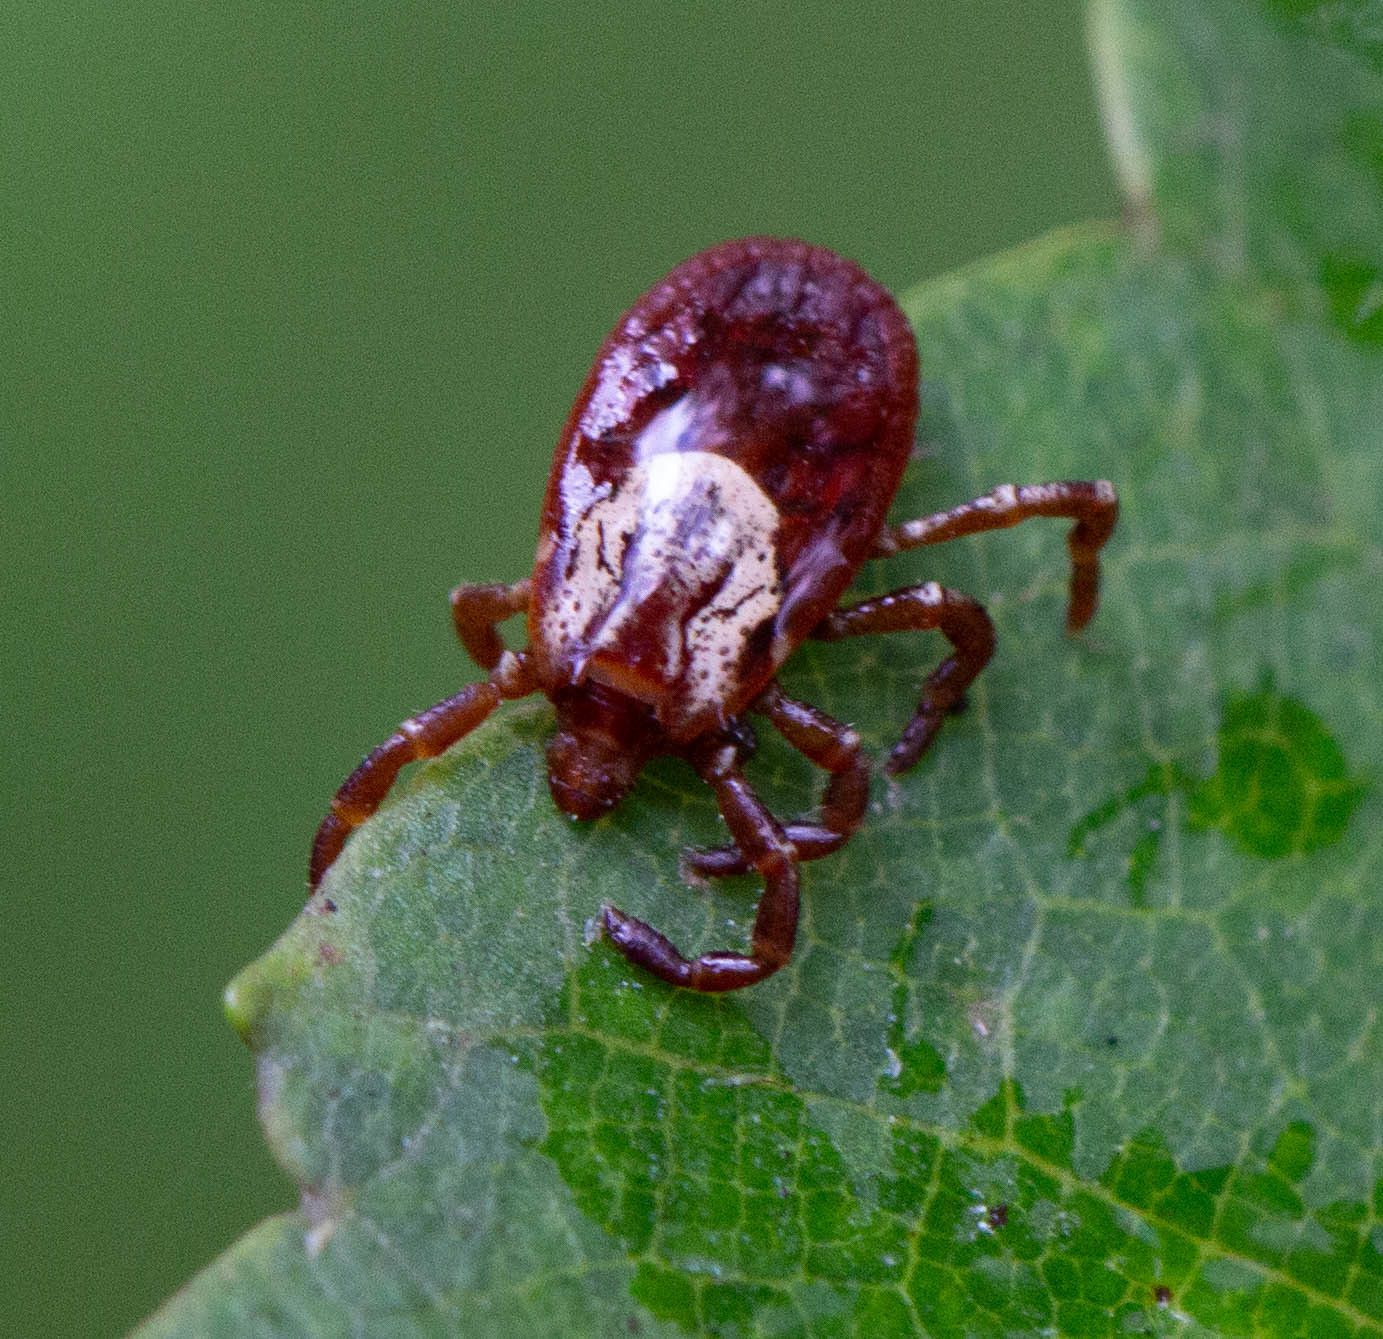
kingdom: Animalia
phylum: Arthropoda
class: Arachnida
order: Ixodida
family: Ixodidae
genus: Dermacentor
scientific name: Dermacentor variabilis
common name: American dog tick
